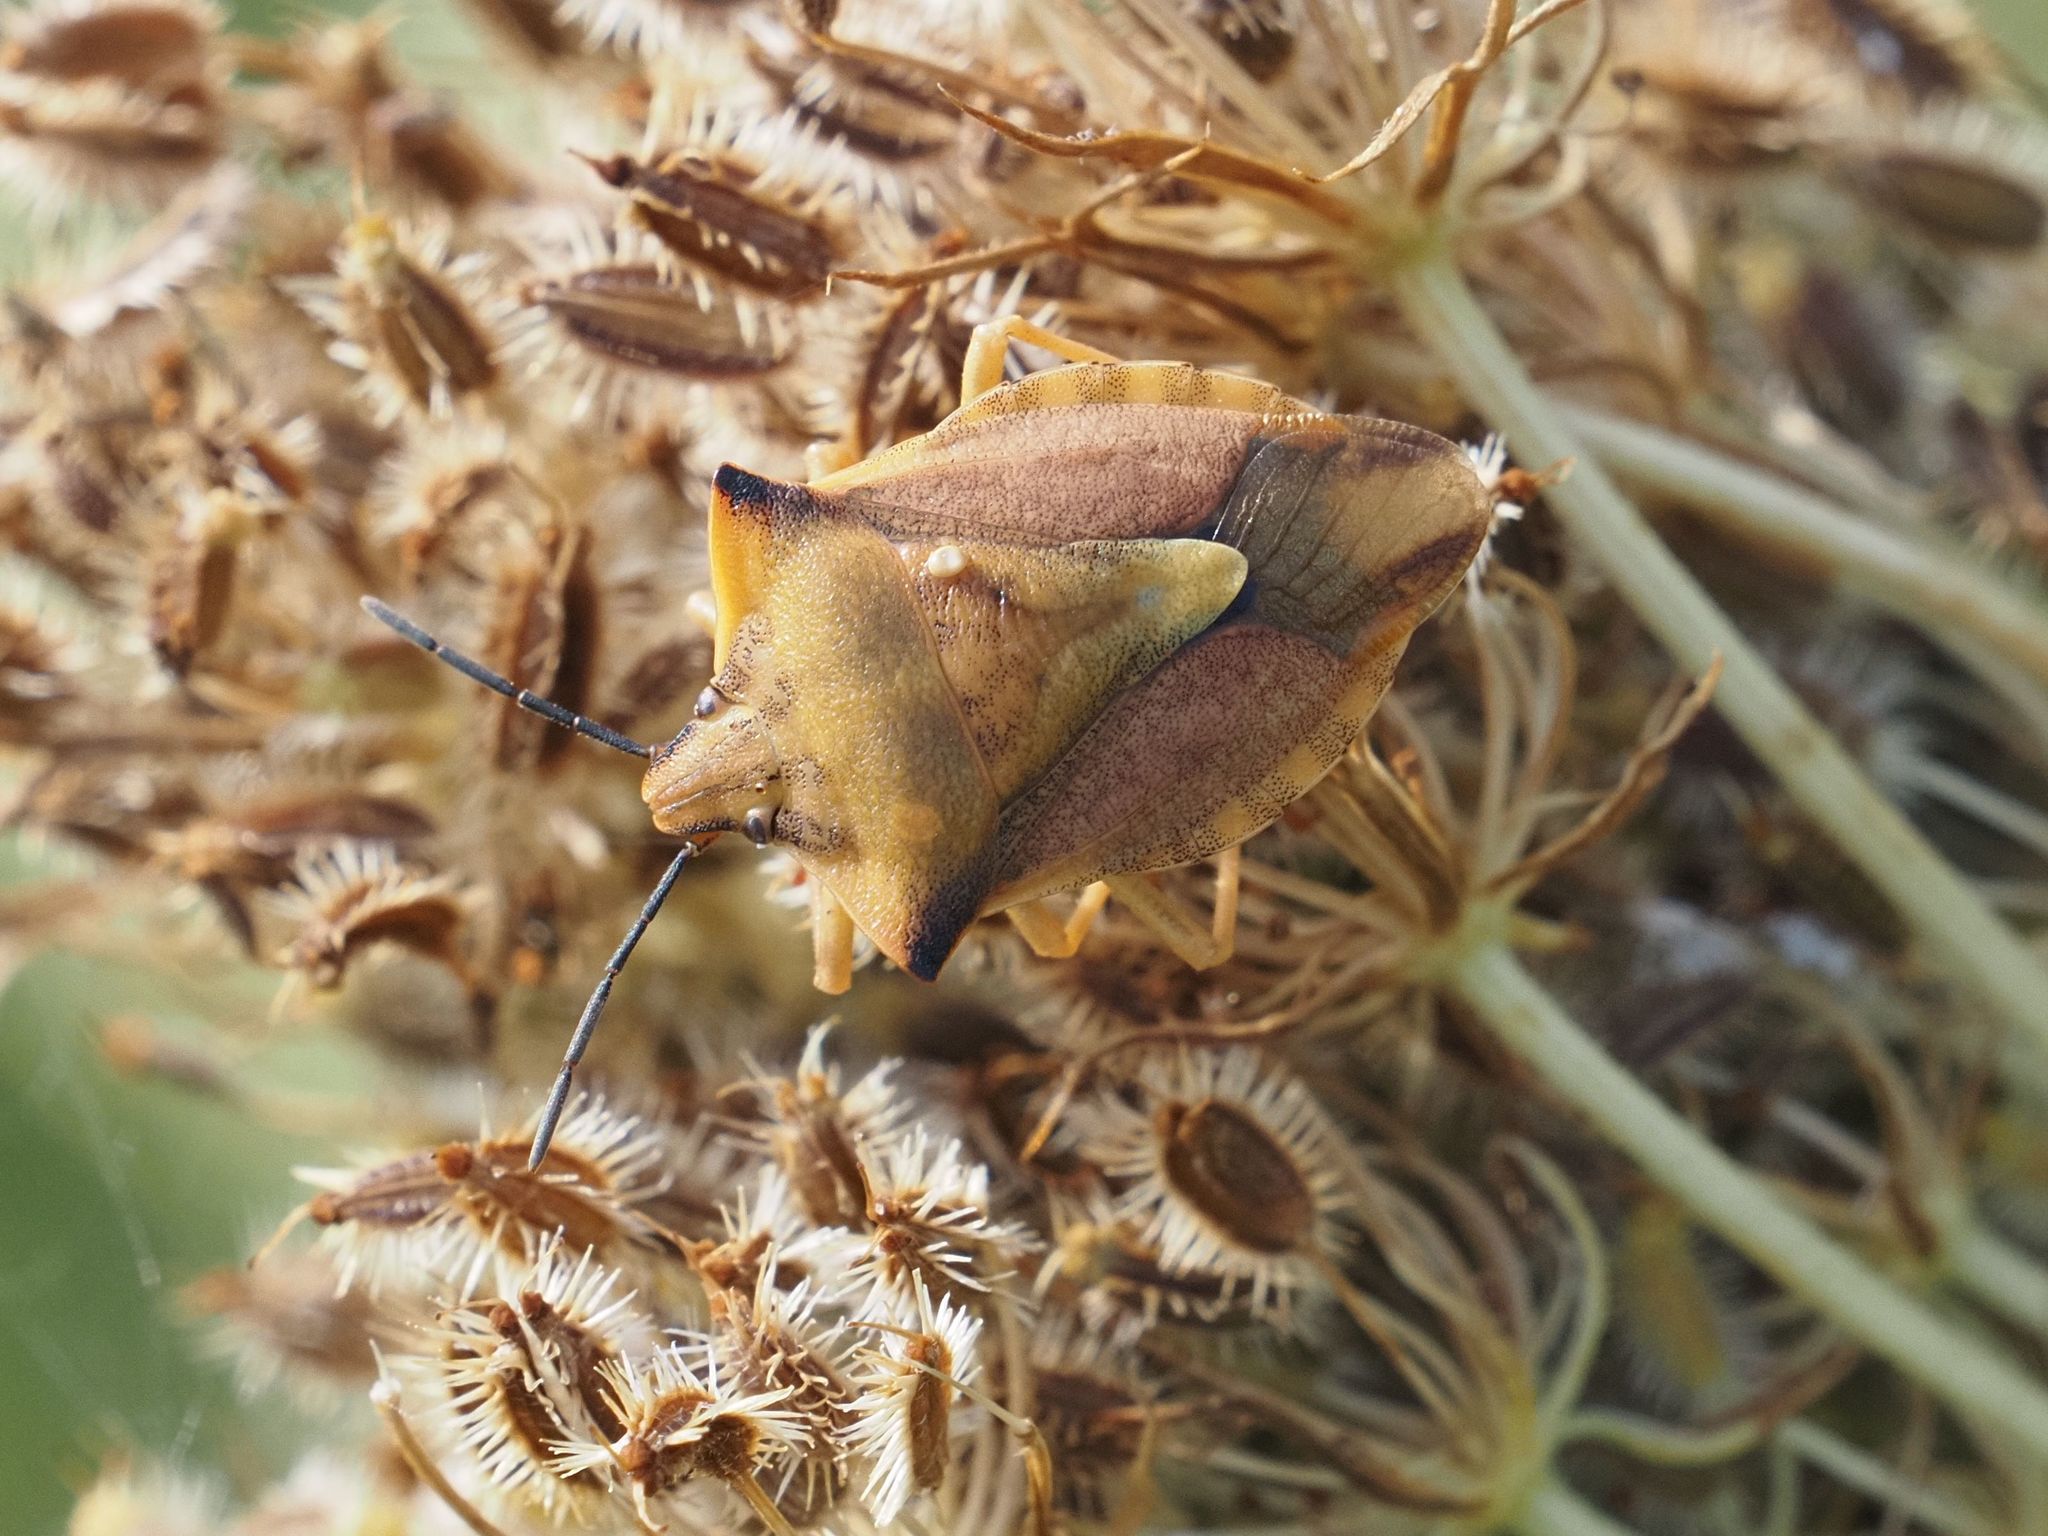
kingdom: Animalia
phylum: Arthropoda
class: Insecta
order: Hemiptera
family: Pentatomidae
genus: Carpocoris
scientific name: Carpocoris fuscispinus
